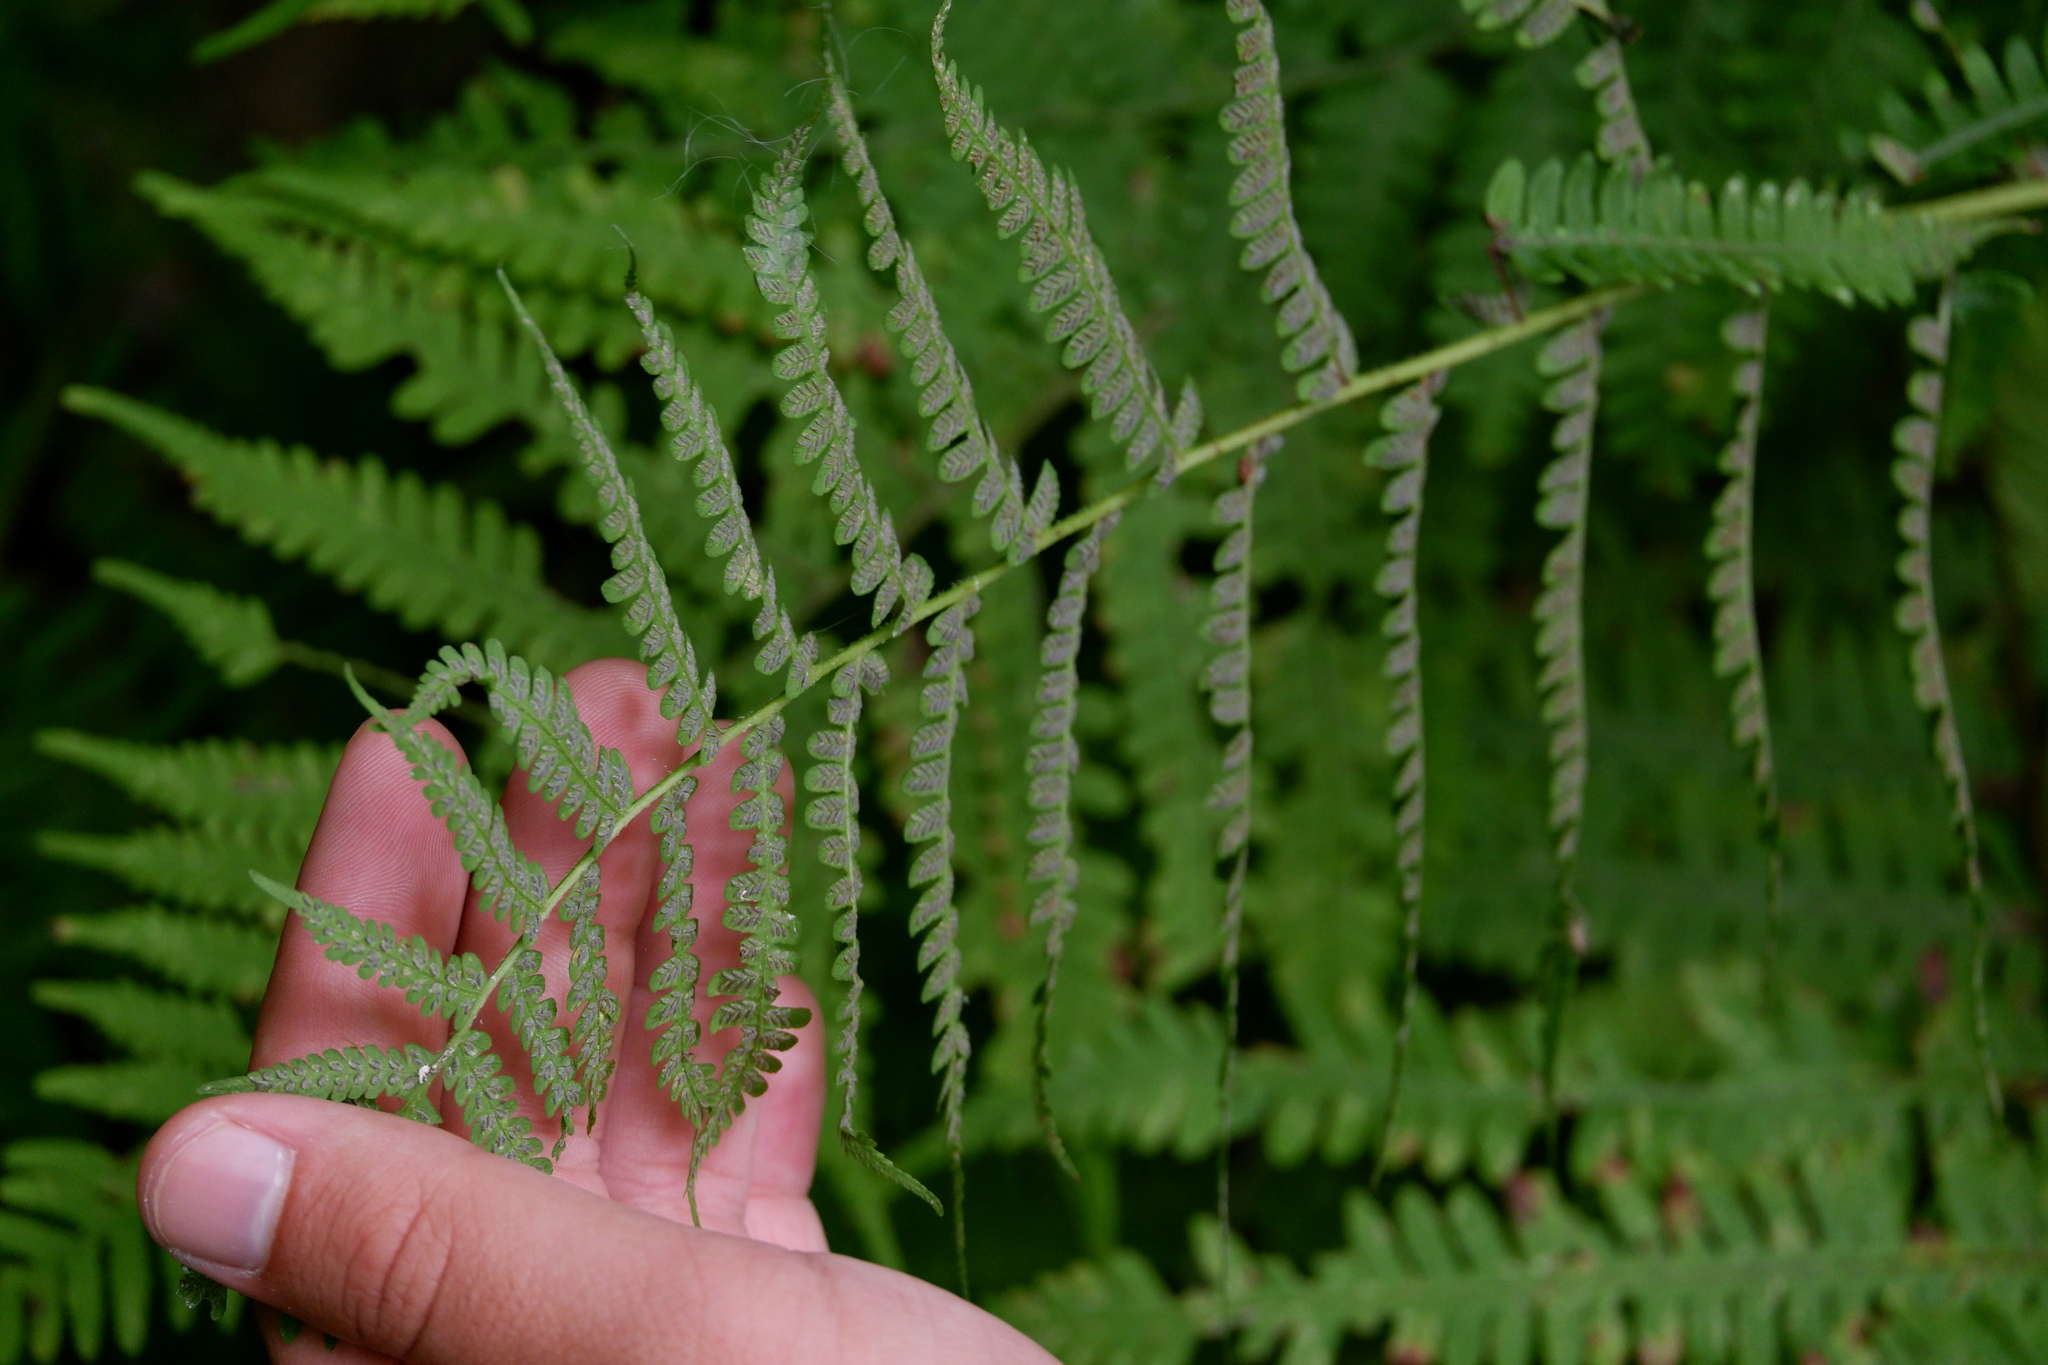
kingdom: Plantae
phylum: Tracheophyta
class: Polypodiopsida
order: Polypodiales
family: Athyriaceae
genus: Deparia
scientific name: Deparia acrostichoides
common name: Silver false spleenwort
